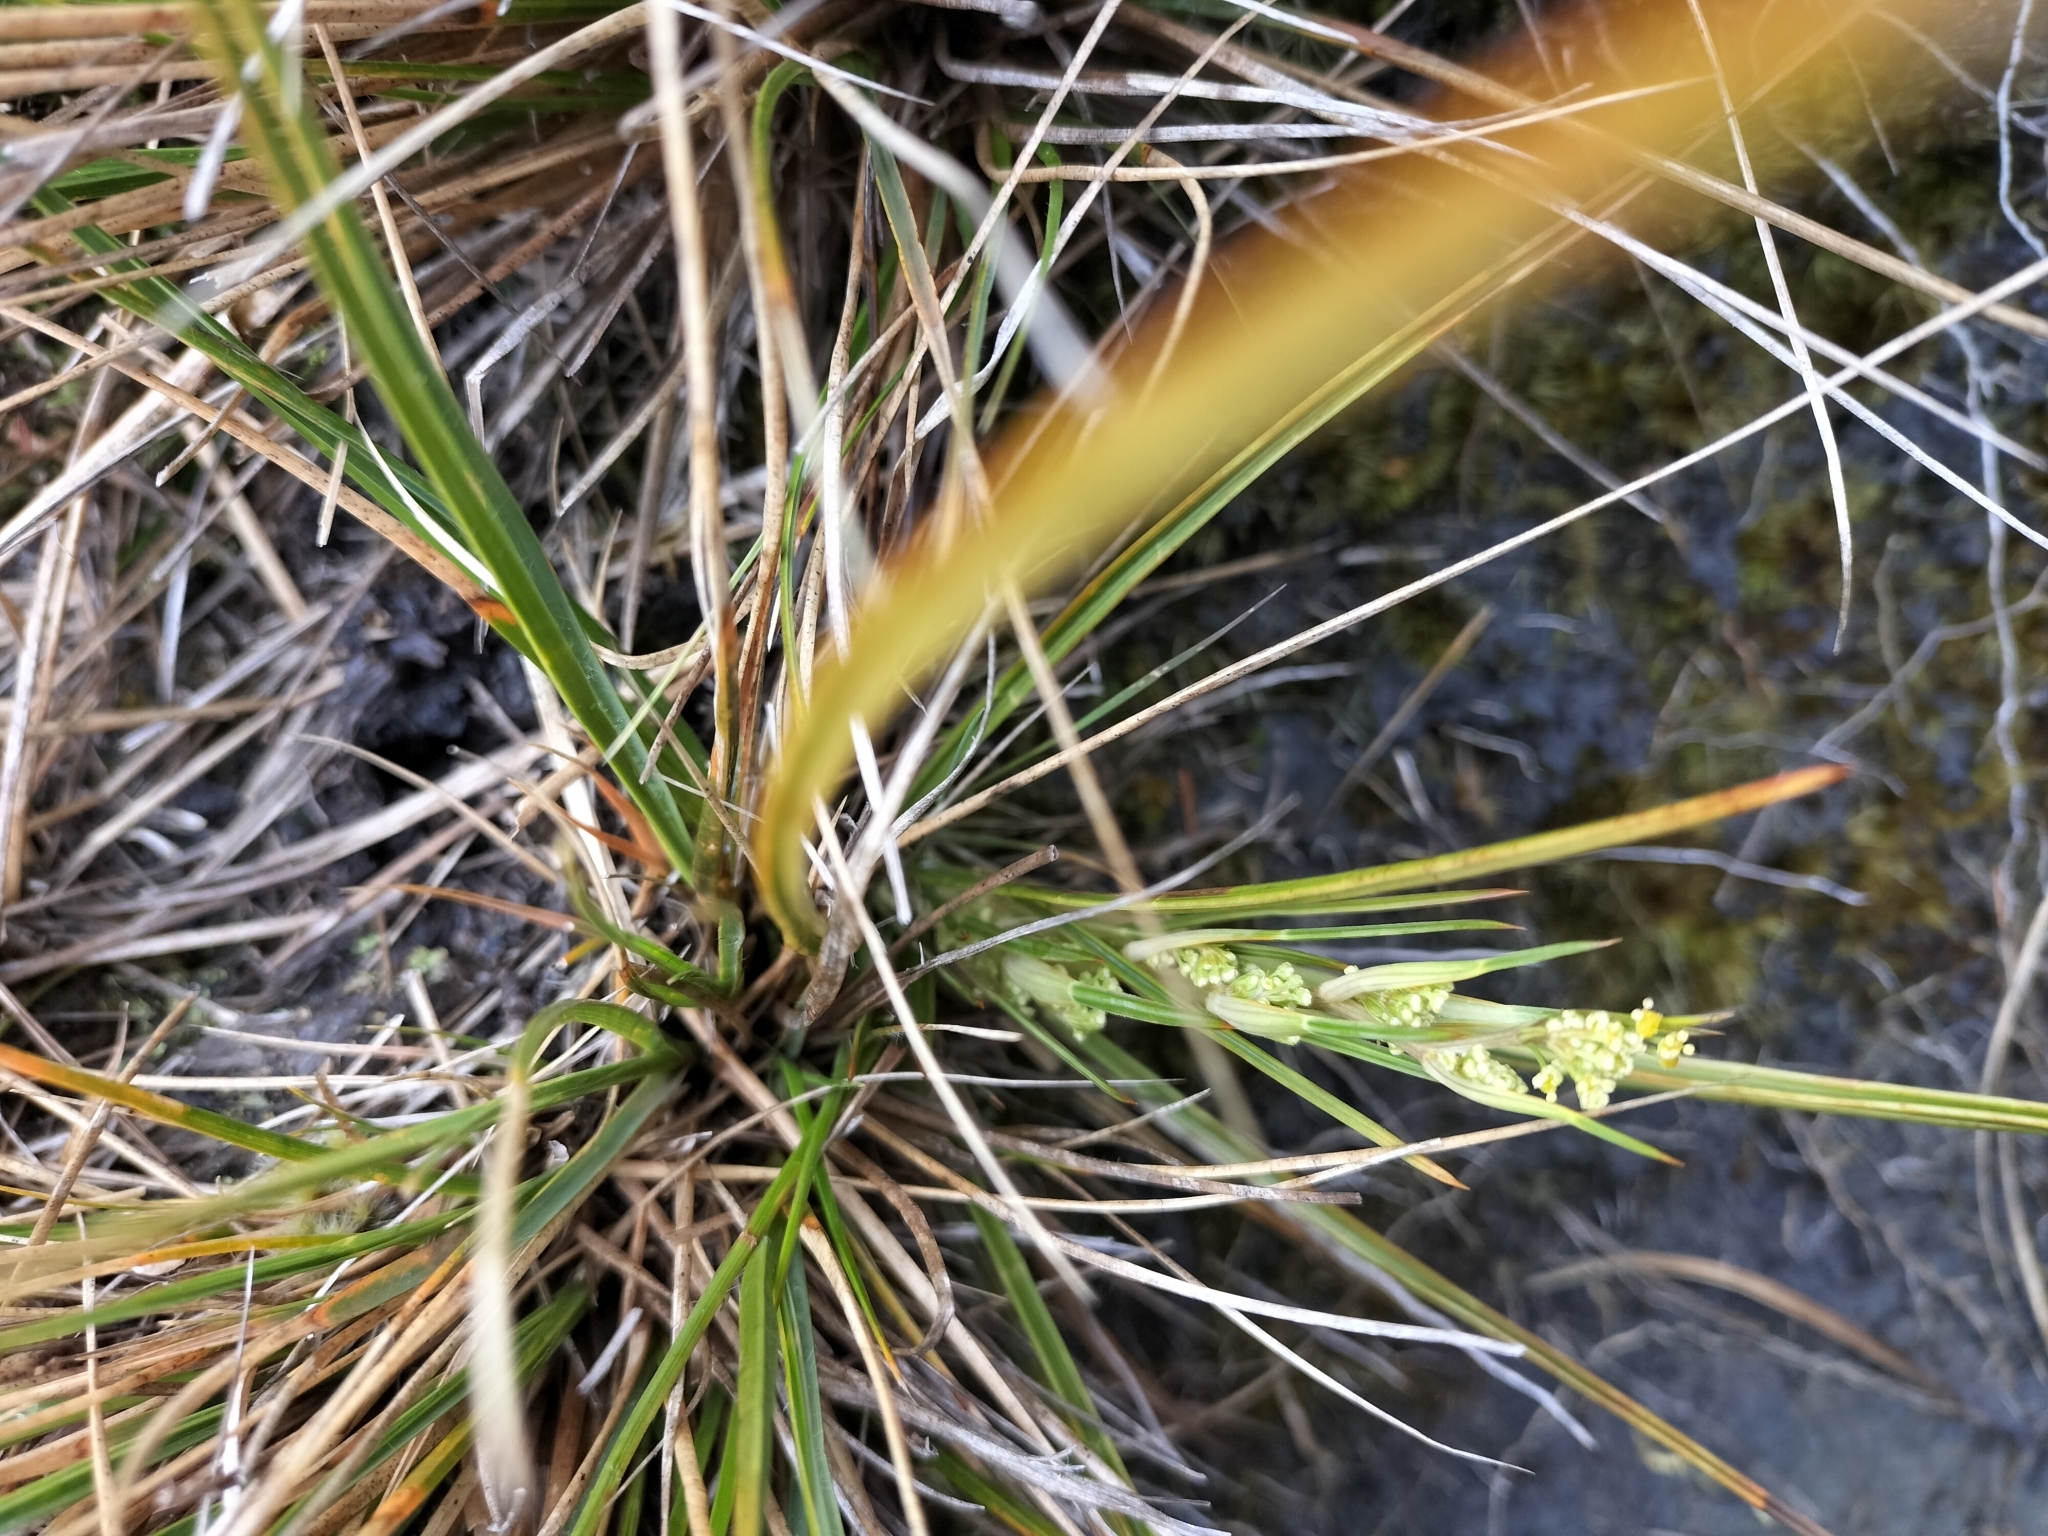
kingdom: Plantae
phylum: Tracheophyta
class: Magnoliopsida
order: Apiales
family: Apiaceae
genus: Aciphylla
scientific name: Aciphylla anomala
